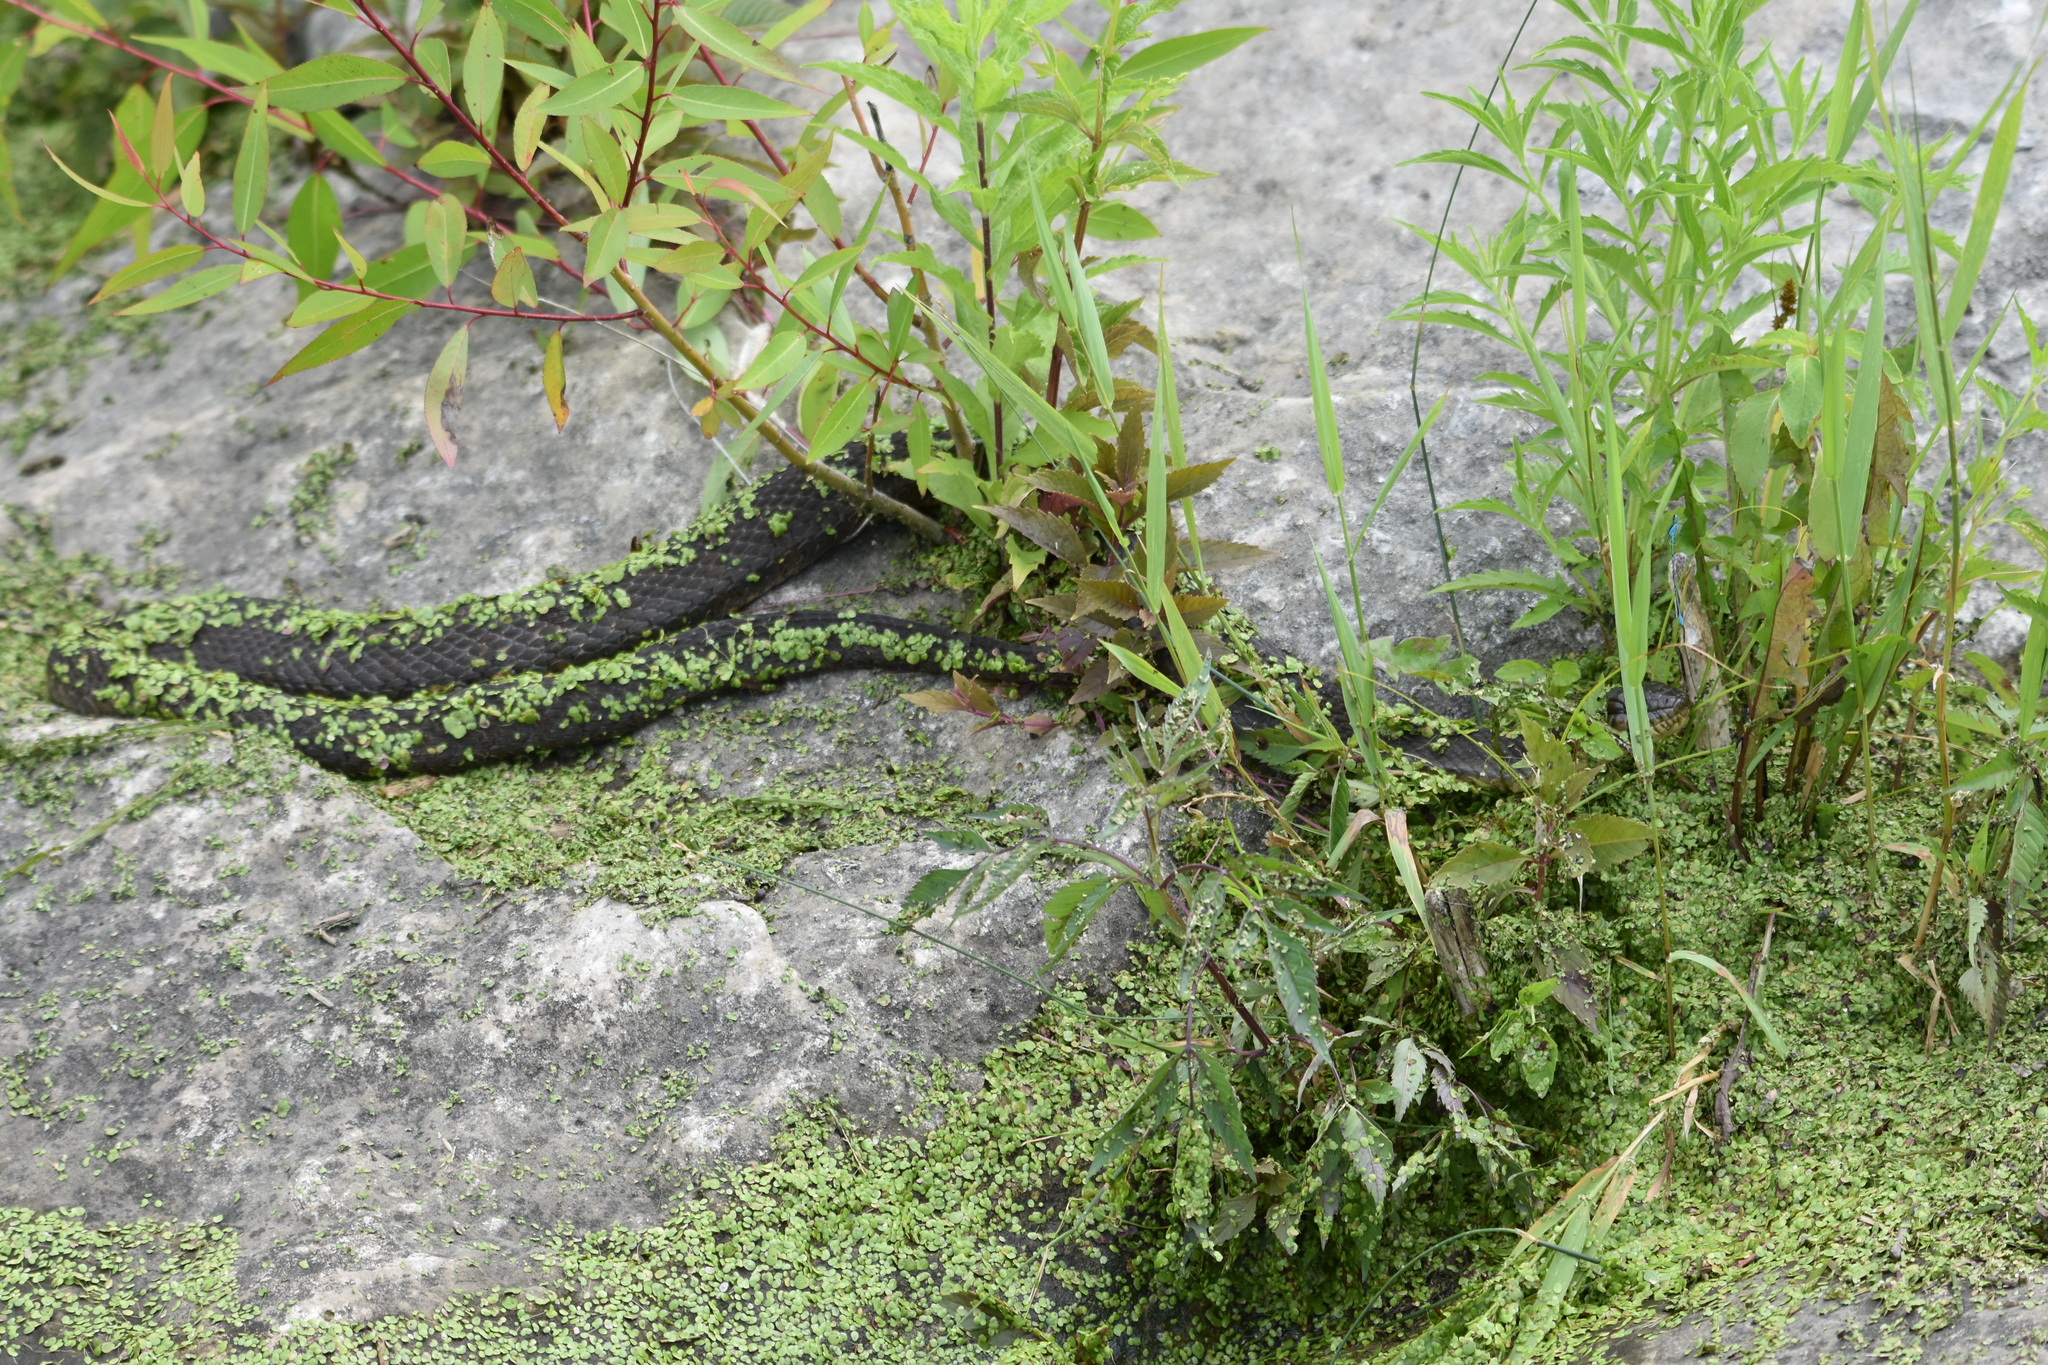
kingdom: Animalia
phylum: Chordata
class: Squamata
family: Colubridae
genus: Nerodia
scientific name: Nerodia sipedon
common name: Northern water snake
